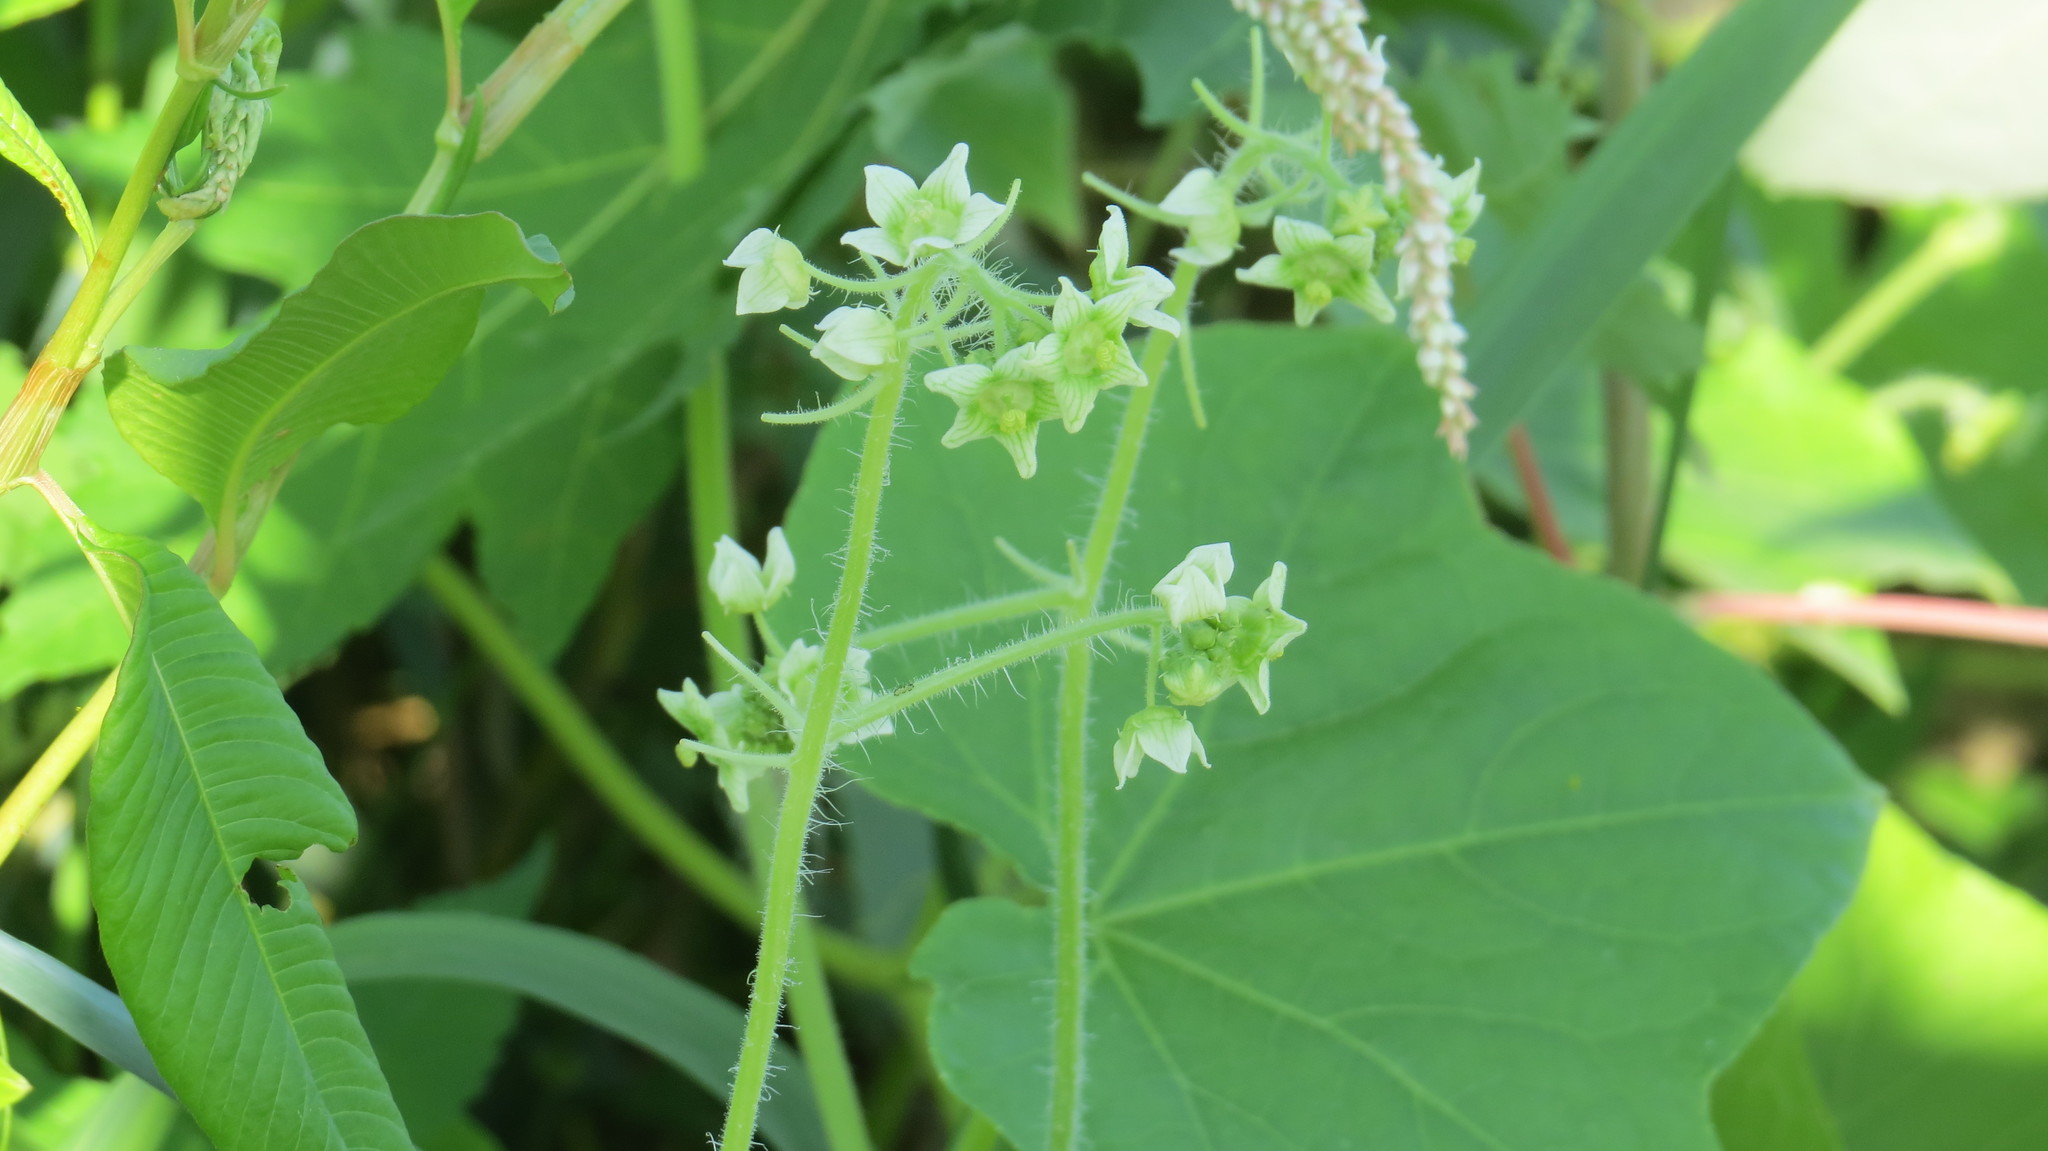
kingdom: Plantae
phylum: Tracheophyta
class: Magnoliopsida
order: Cucurbitales
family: Cucurbitaceae
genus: Sicyos
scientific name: Sicyos angulatus
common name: Angled burr cucumber
